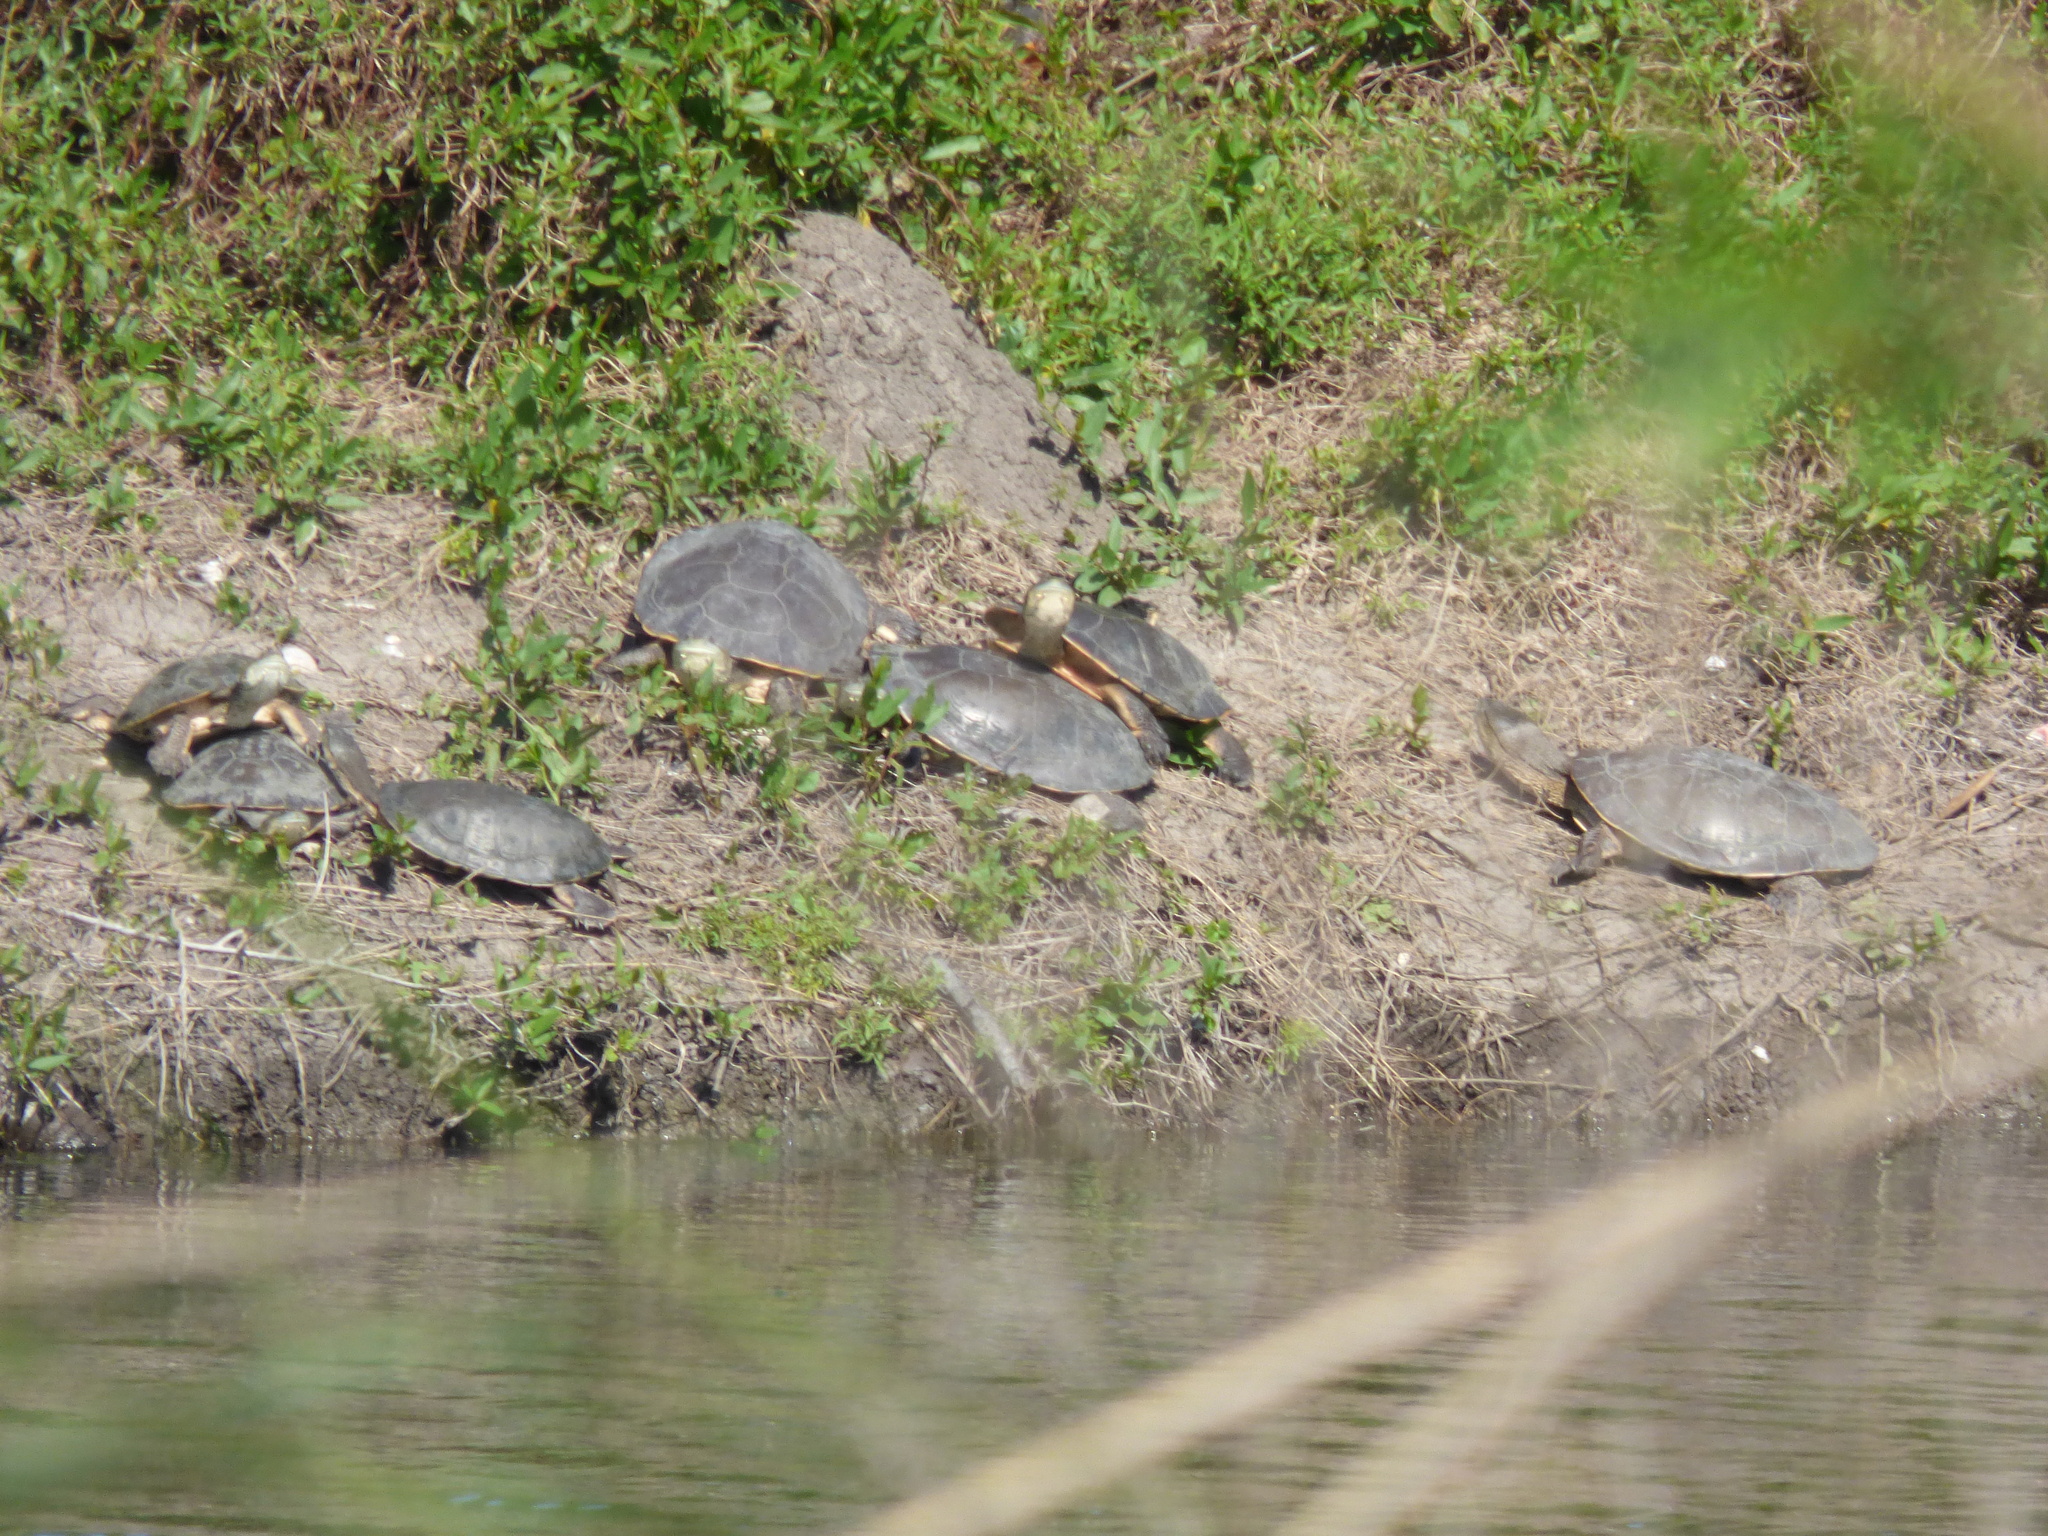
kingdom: Animalia
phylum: Chordata
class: Testudines
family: Chelidae
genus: Phrynops
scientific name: Phrynops hilarii
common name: Side-necked turtle of saint hillaire
